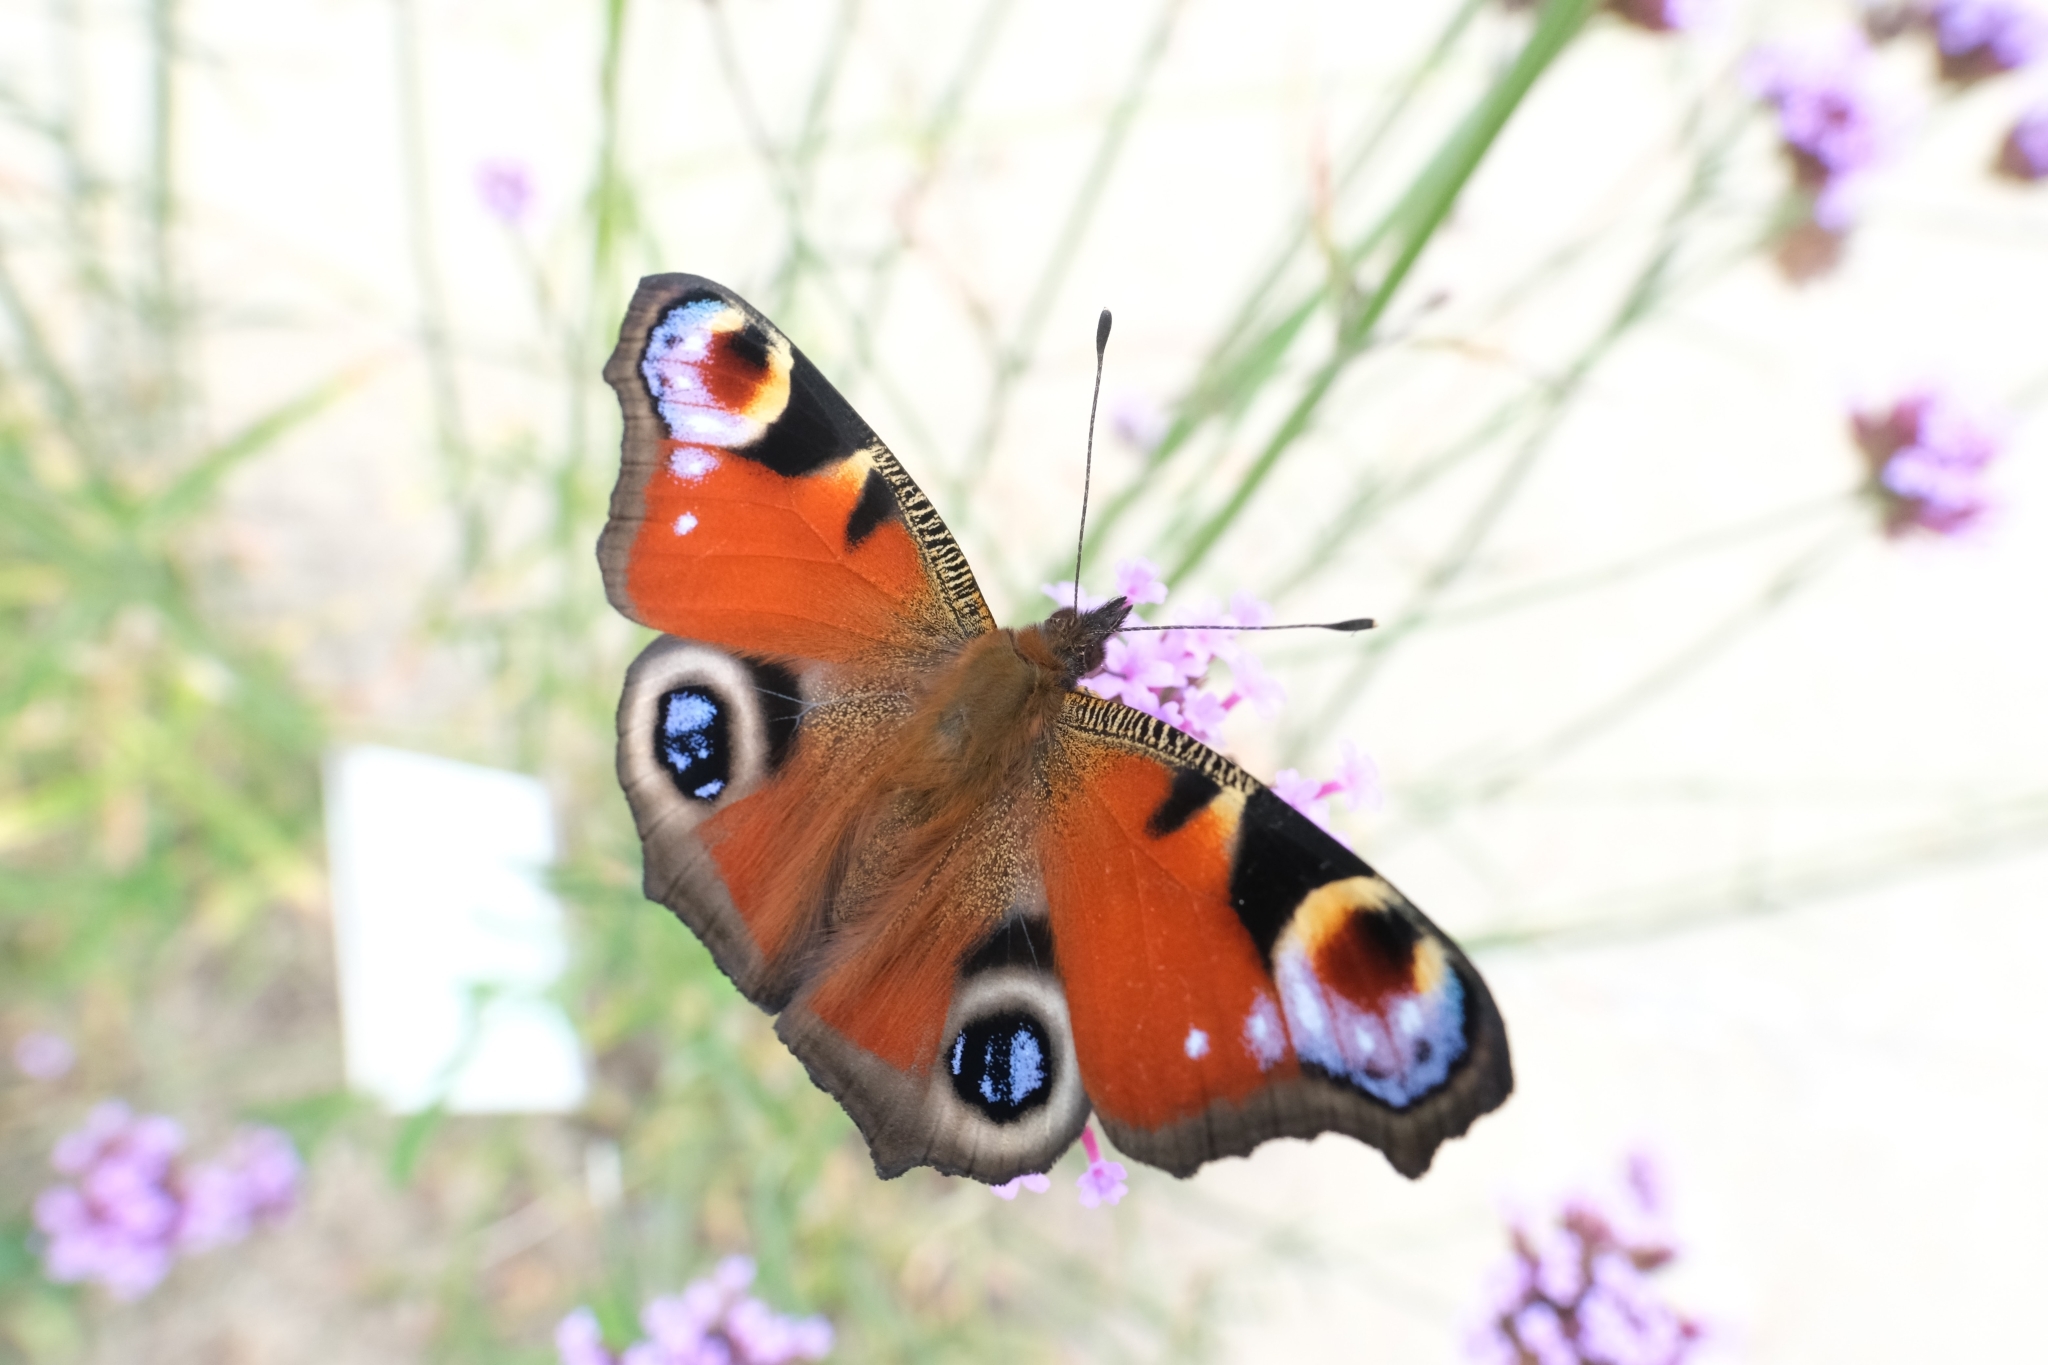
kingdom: Animalia
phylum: Arthropoda
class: Insecta
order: Lepidoptera
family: Nymphalidae
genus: Aglais
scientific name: Aglais io
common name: Peacock
